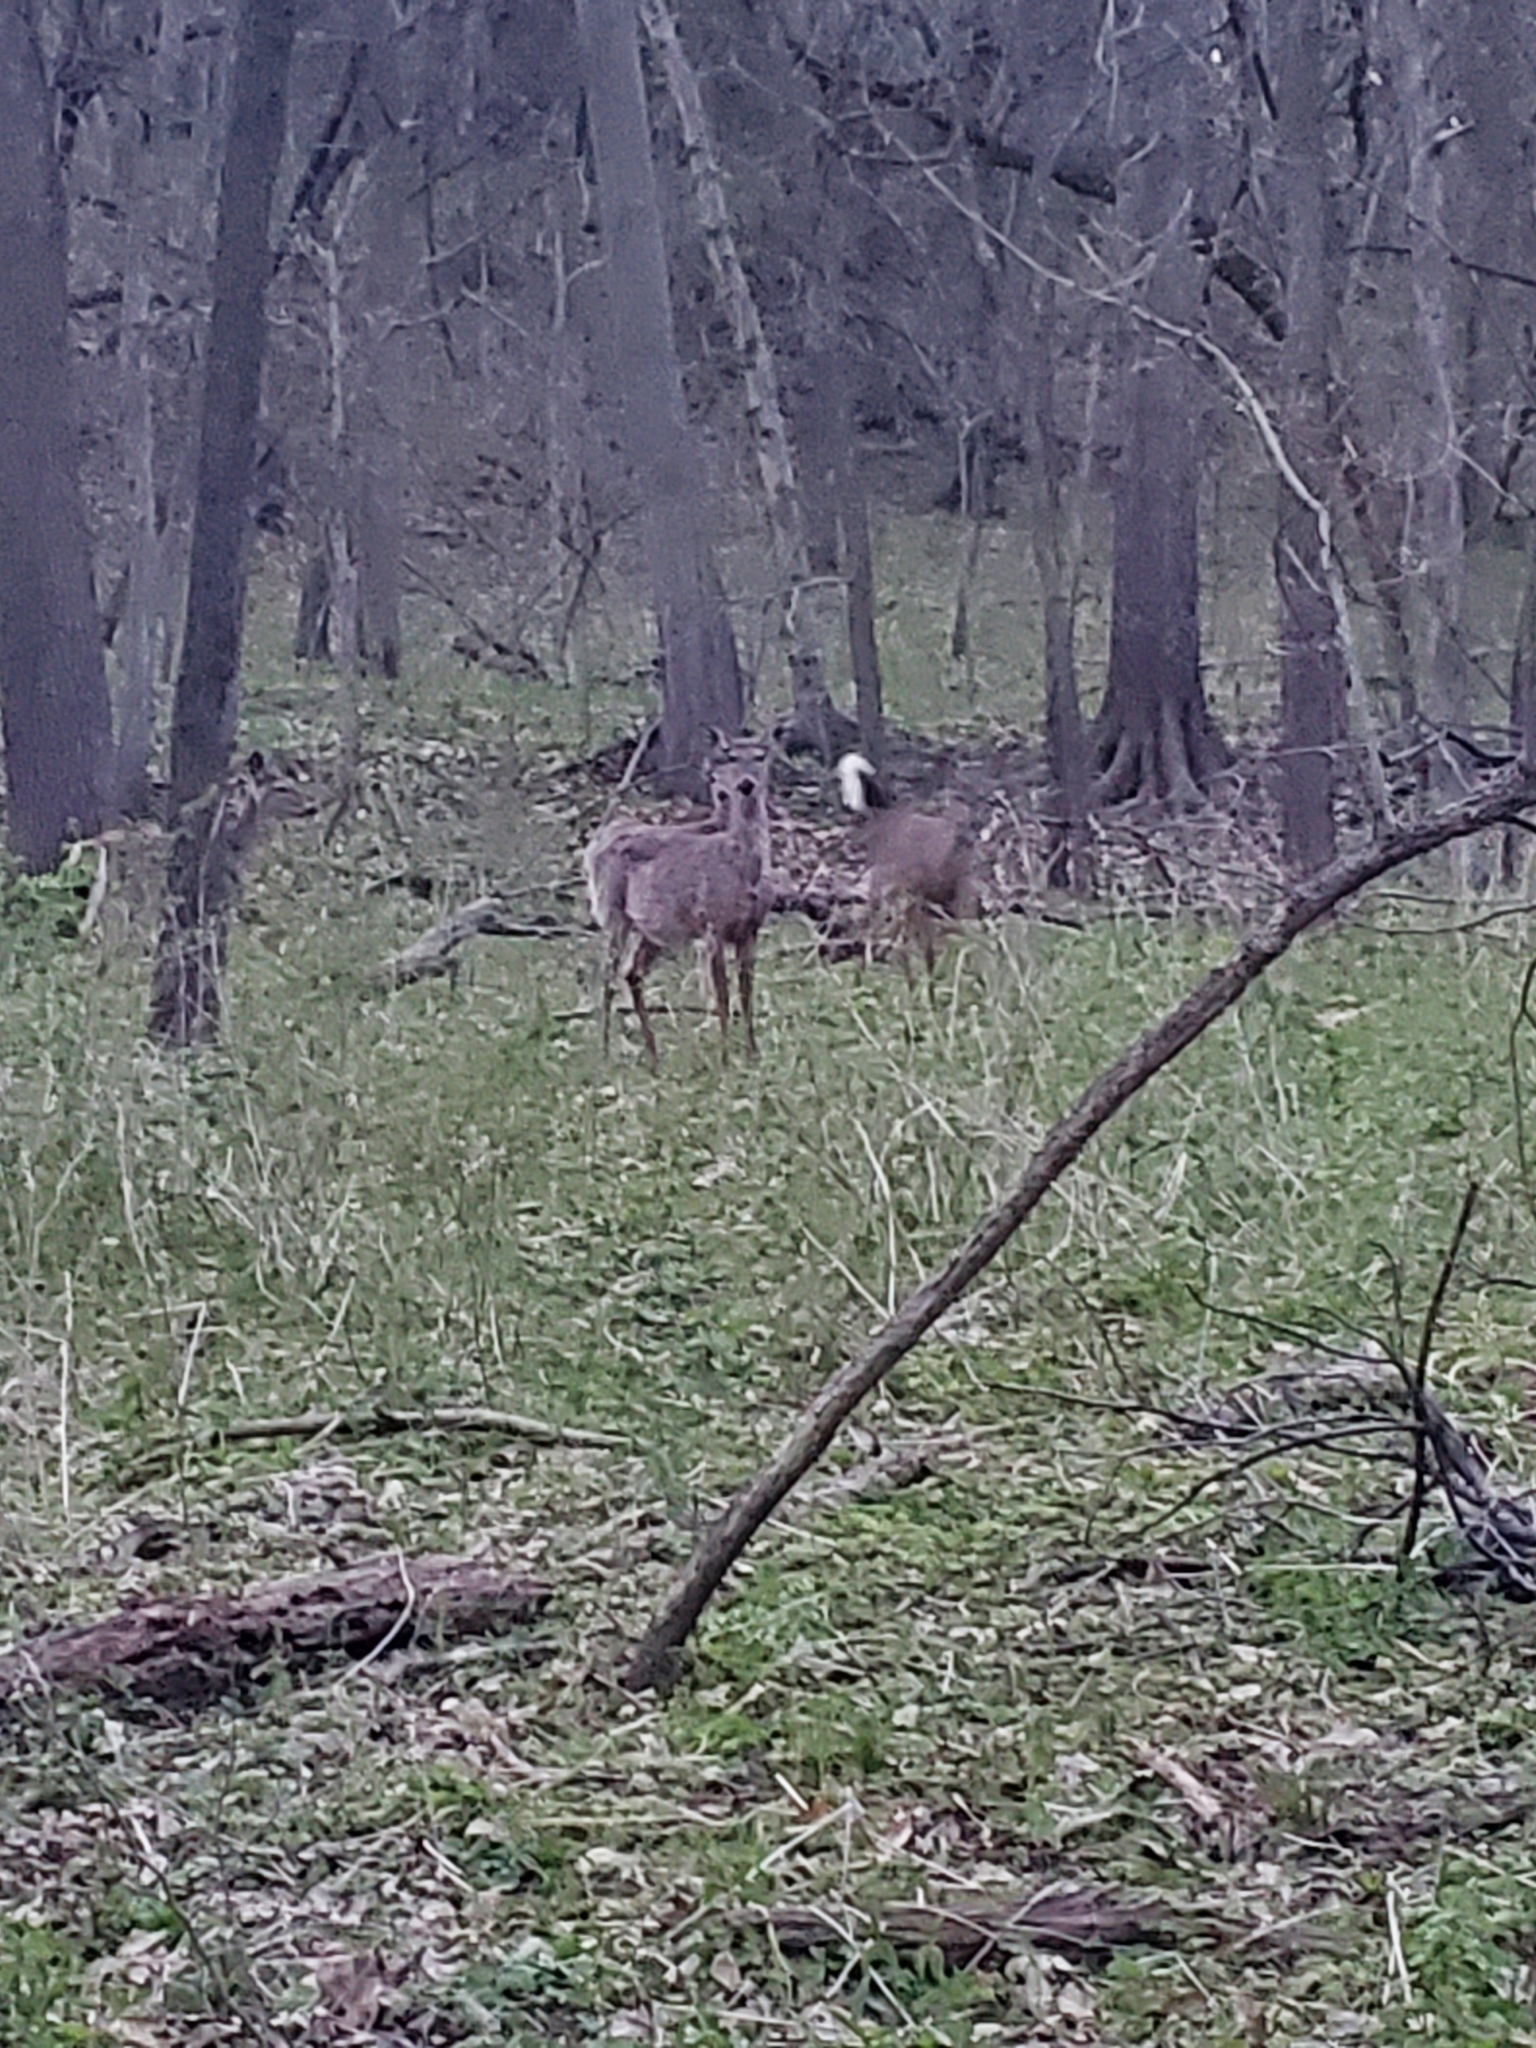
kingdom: Animalia
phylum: Chordata
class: Mammalia
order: Artiodactyla
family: Cervidae
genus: Odocoileus
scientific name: Odocoileus virginianus
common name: White-tailed deer
